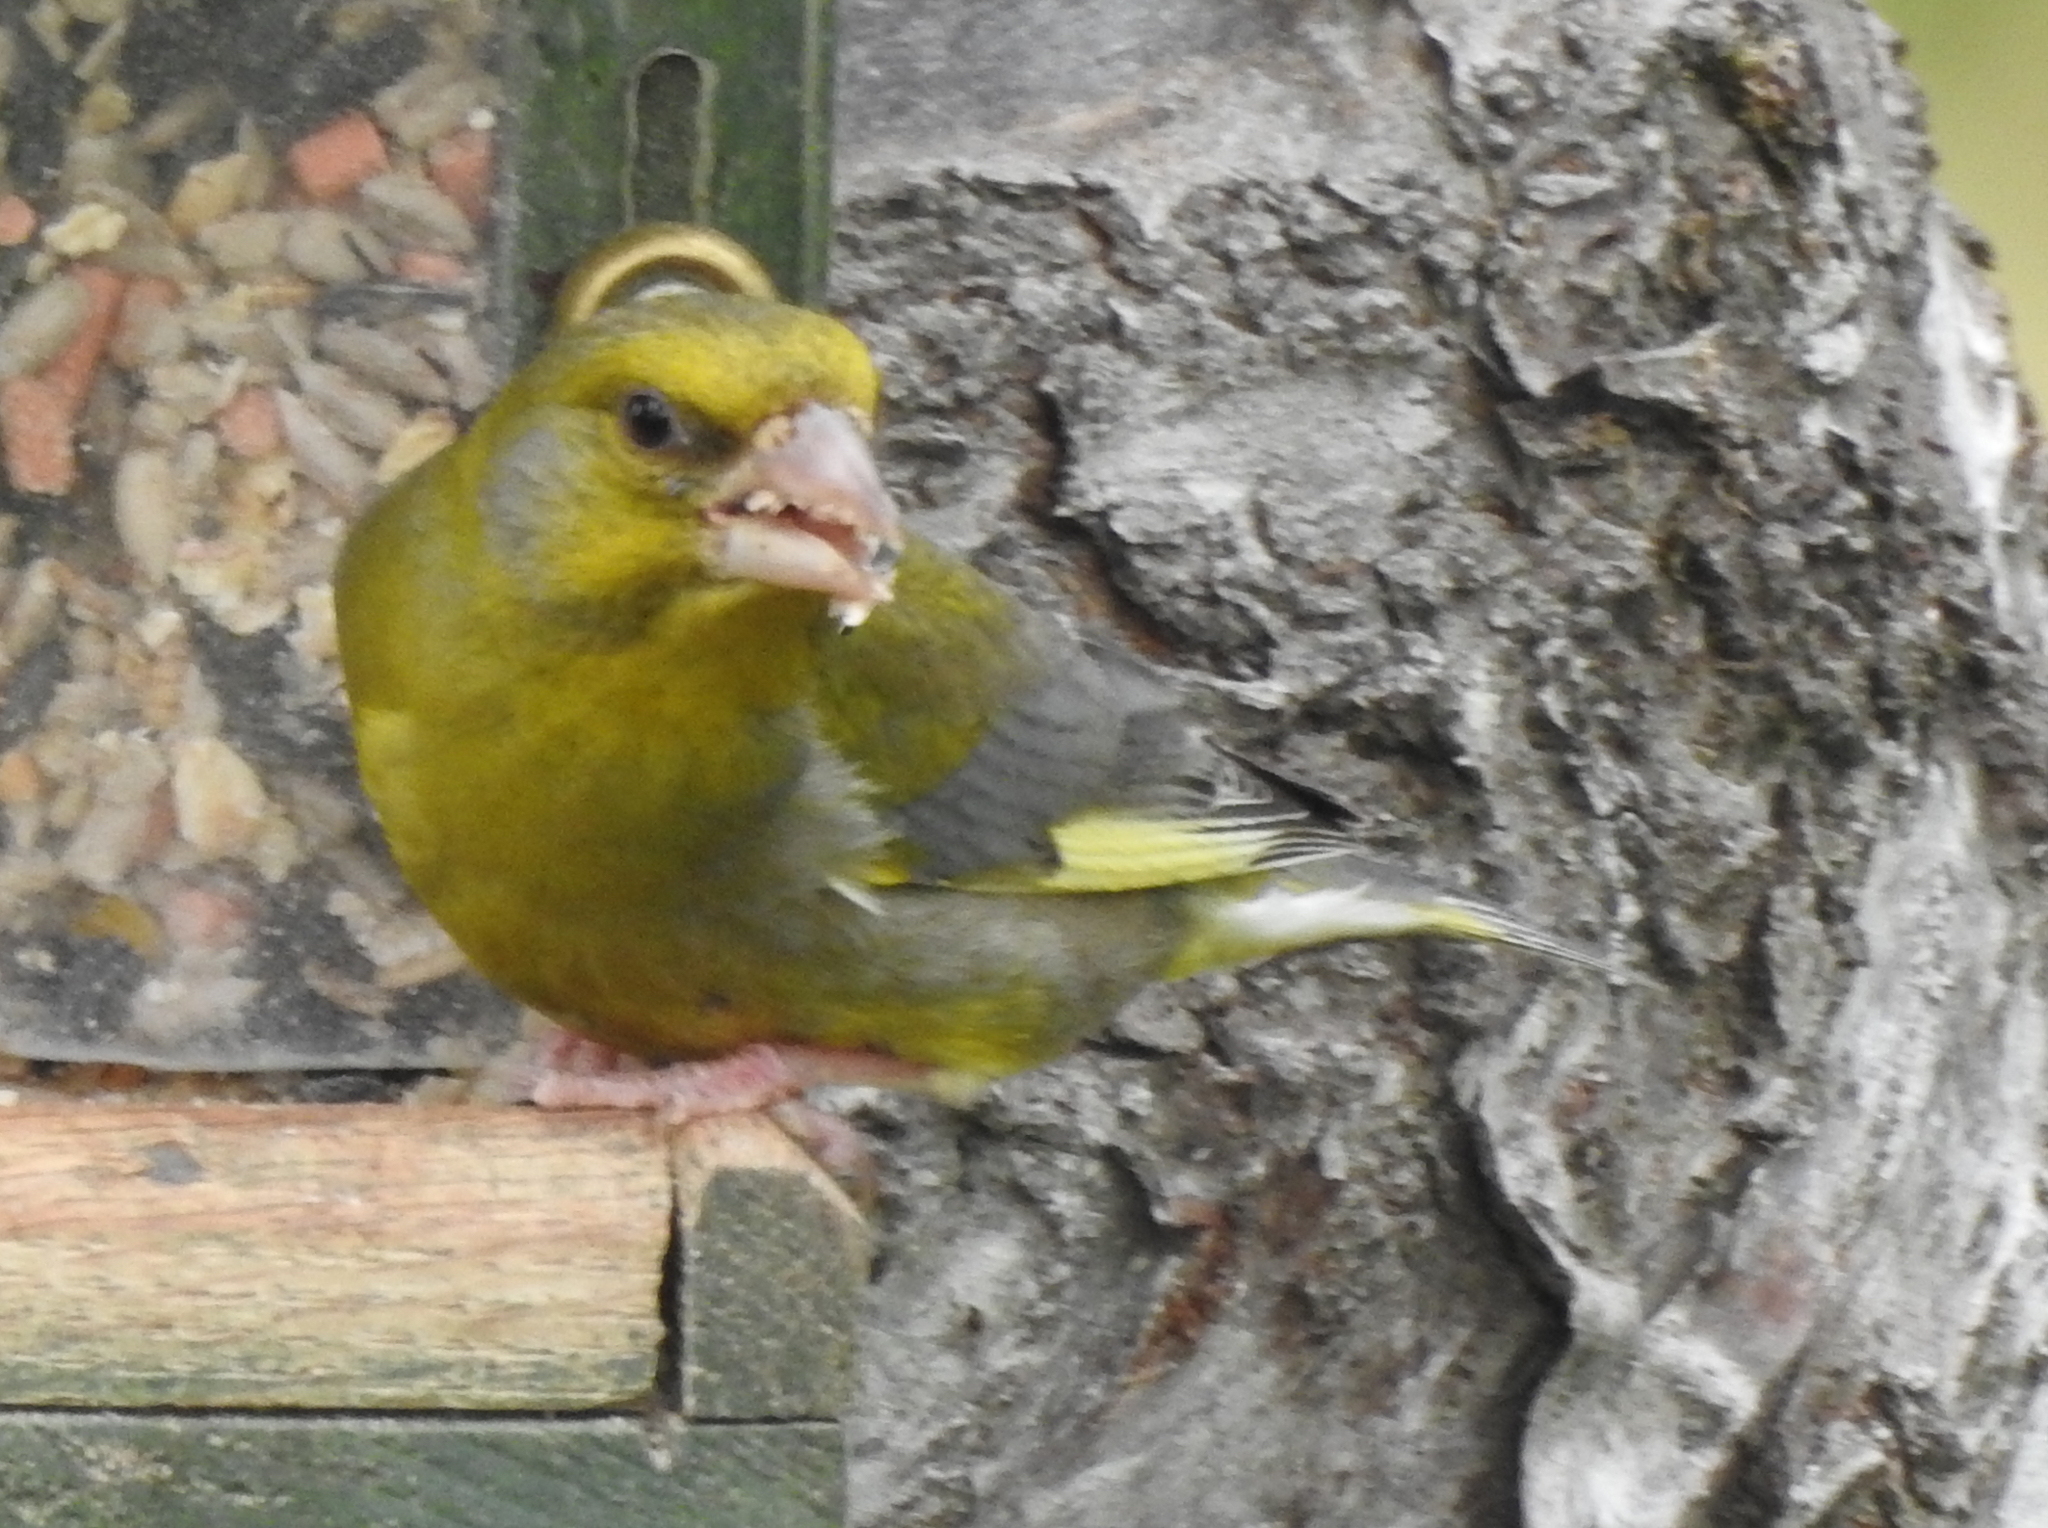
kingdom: Plantae
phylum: Tracheophyta
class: Liliopsida
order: Poales
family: Poaceae
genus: Chloris
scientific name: Chloris chloris
